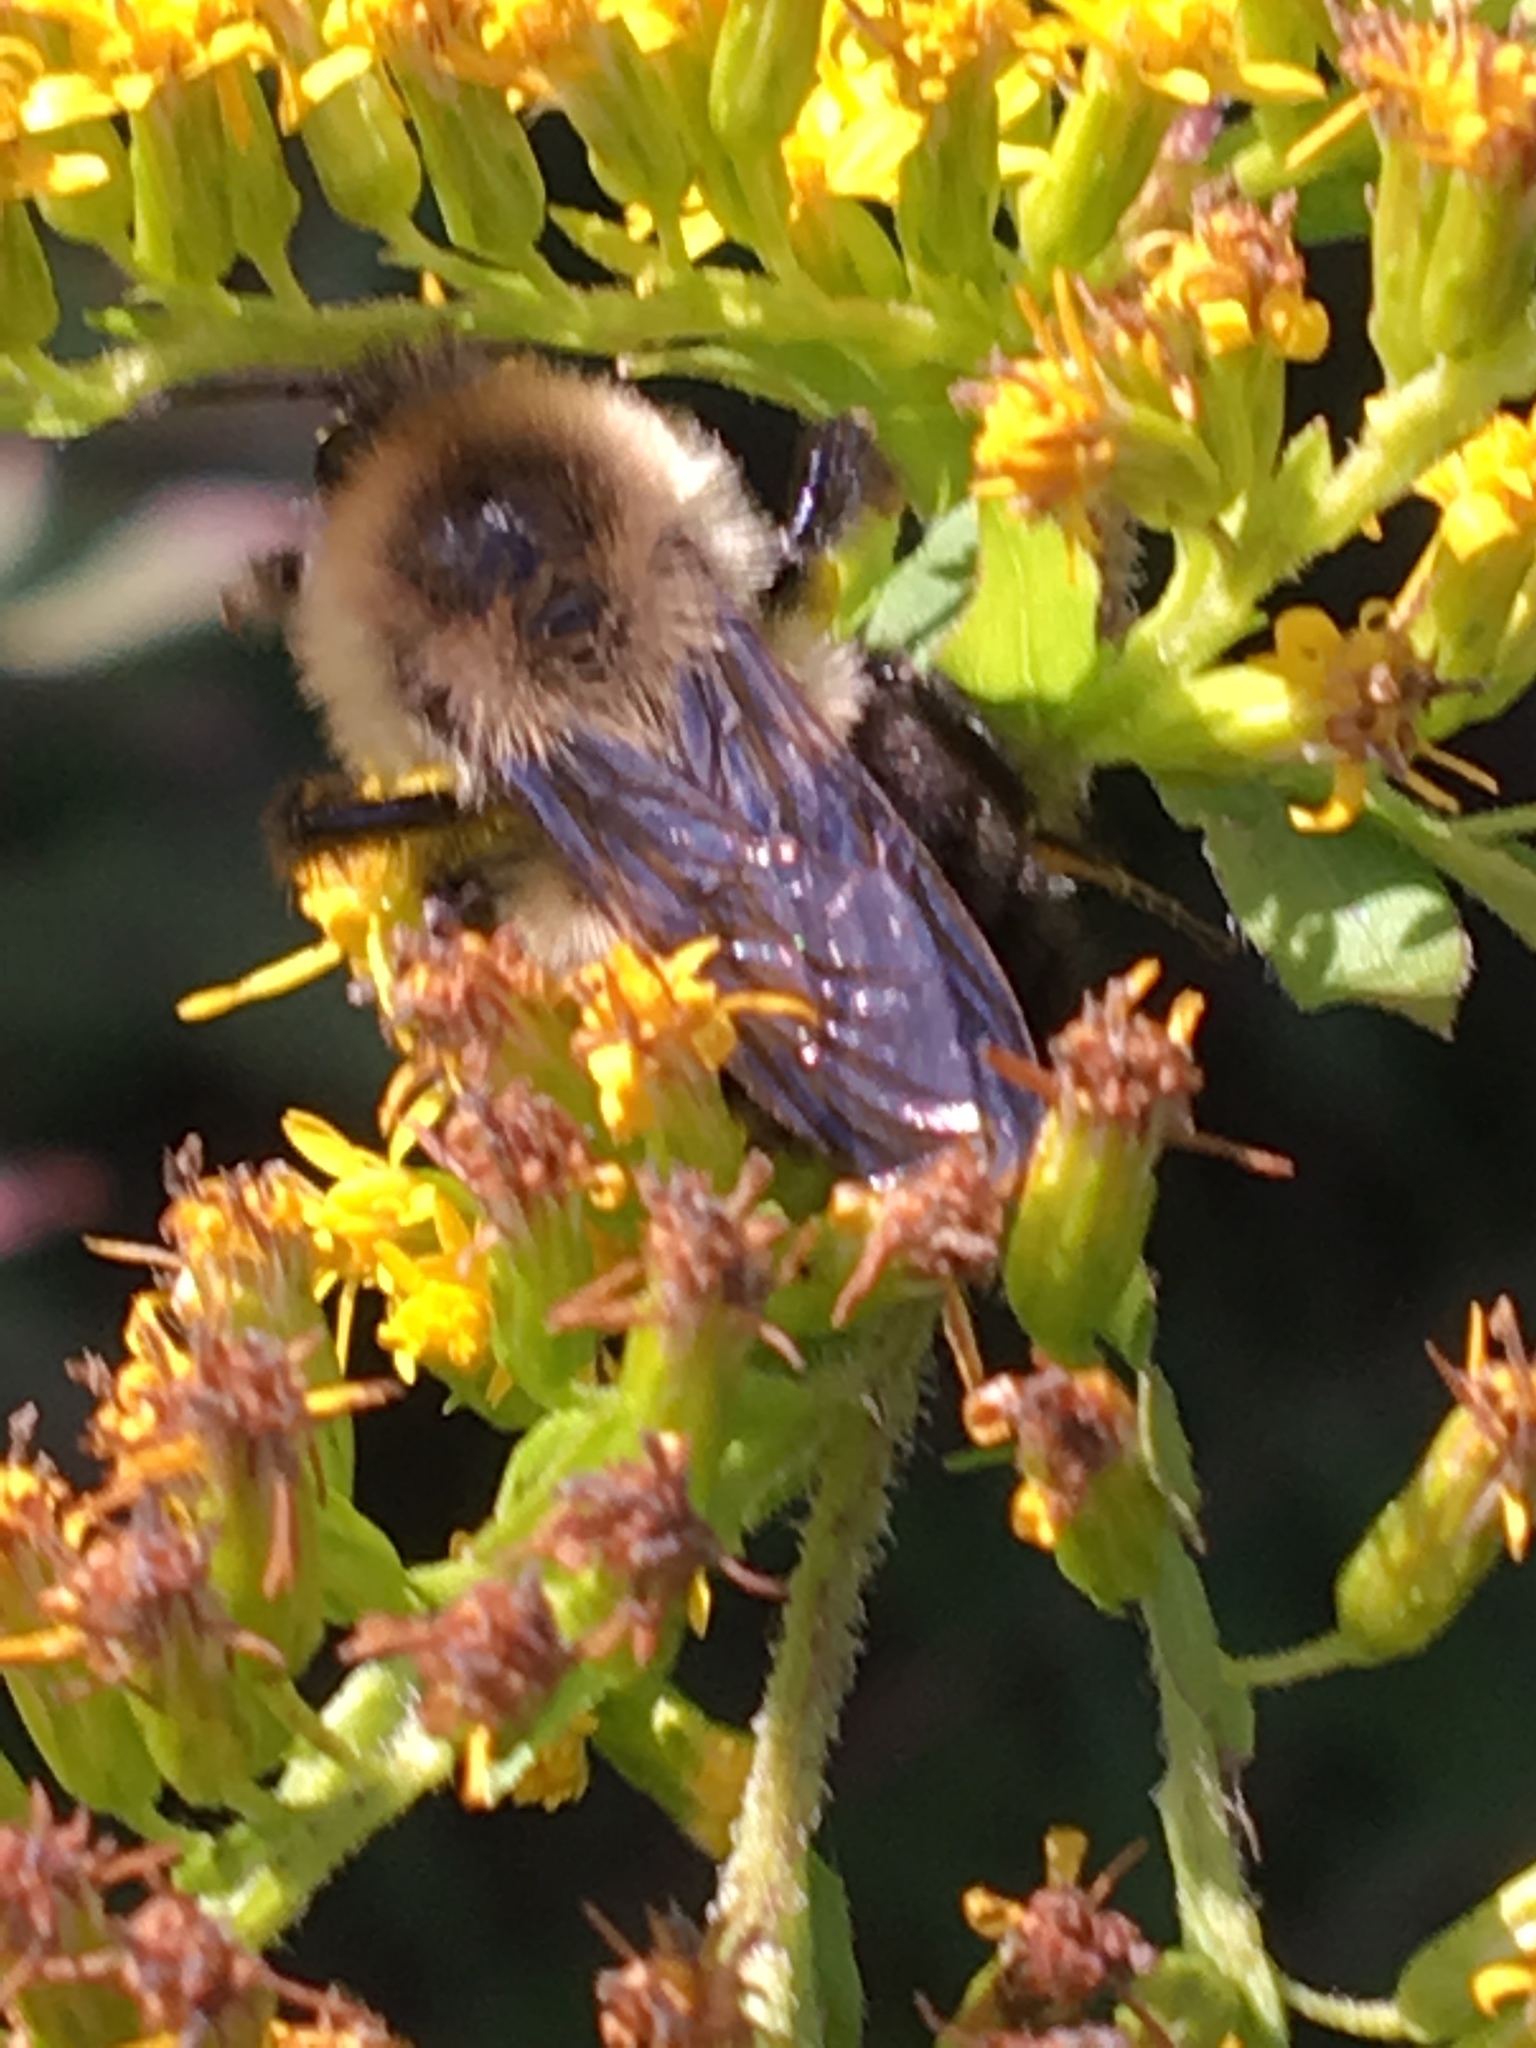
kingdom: Animalia
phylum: Arthropoda
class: Insecta
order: Hymenoptera
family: Apidae
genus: Bombus
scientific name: Bombus impatiens
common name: Common eastern bumble bee
